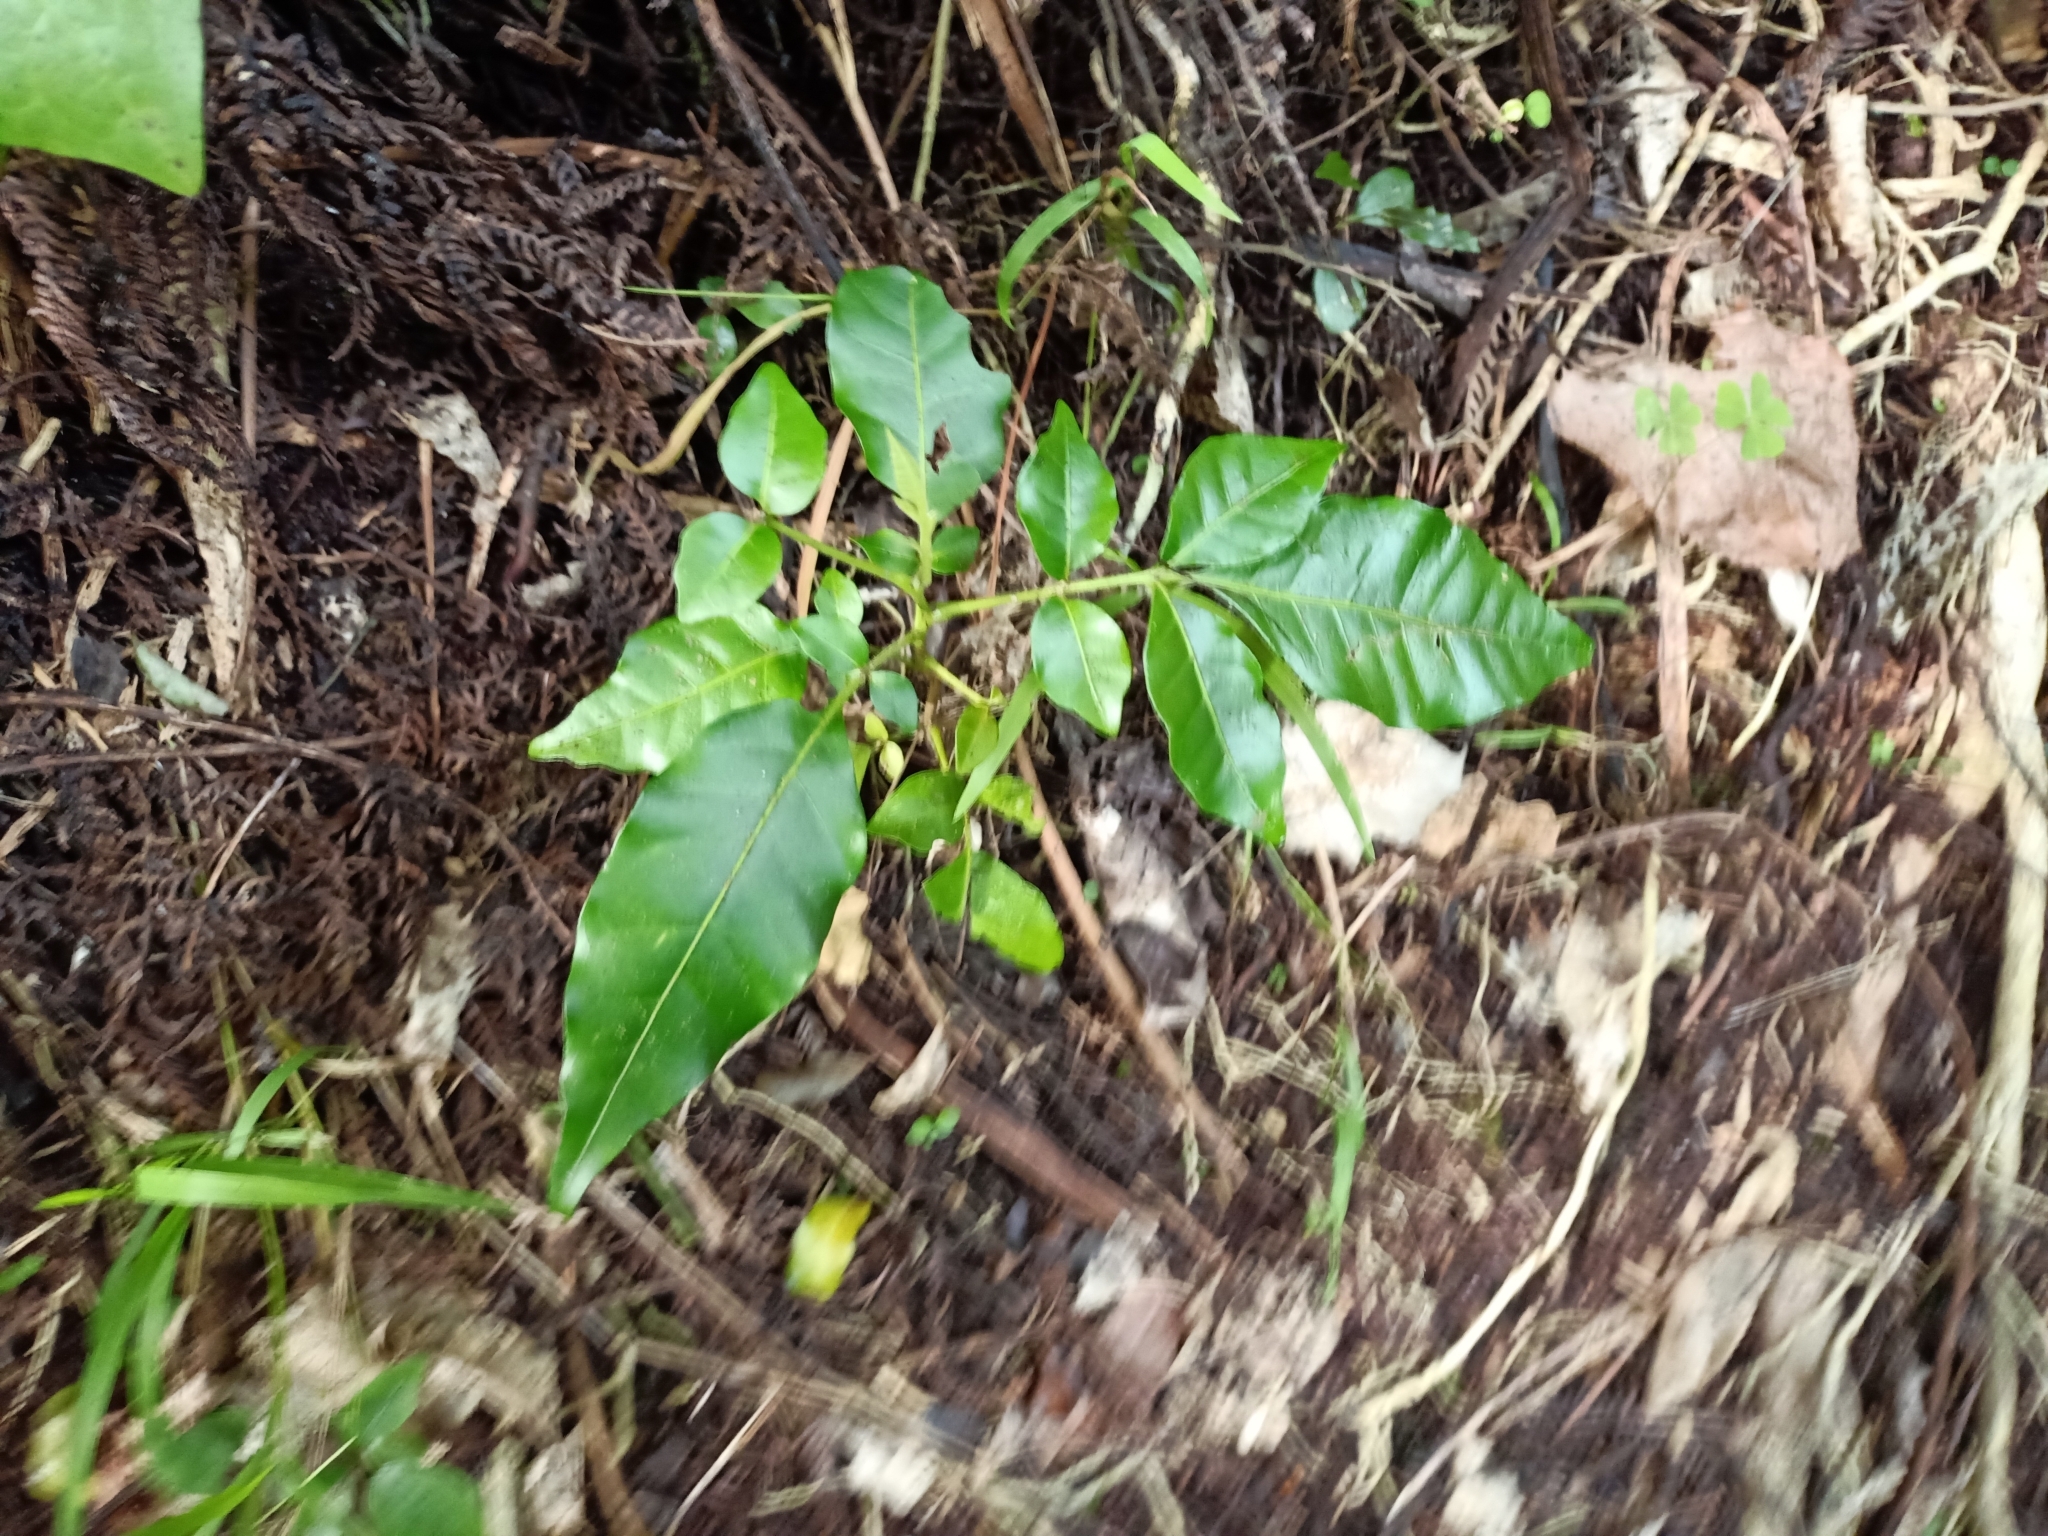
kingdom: Plantae
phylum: Tracheophyta
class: Magnoliopsida
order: Sapindales
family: Meliaceae
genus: Didymocheton
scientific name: Didymocheton spectabilis
